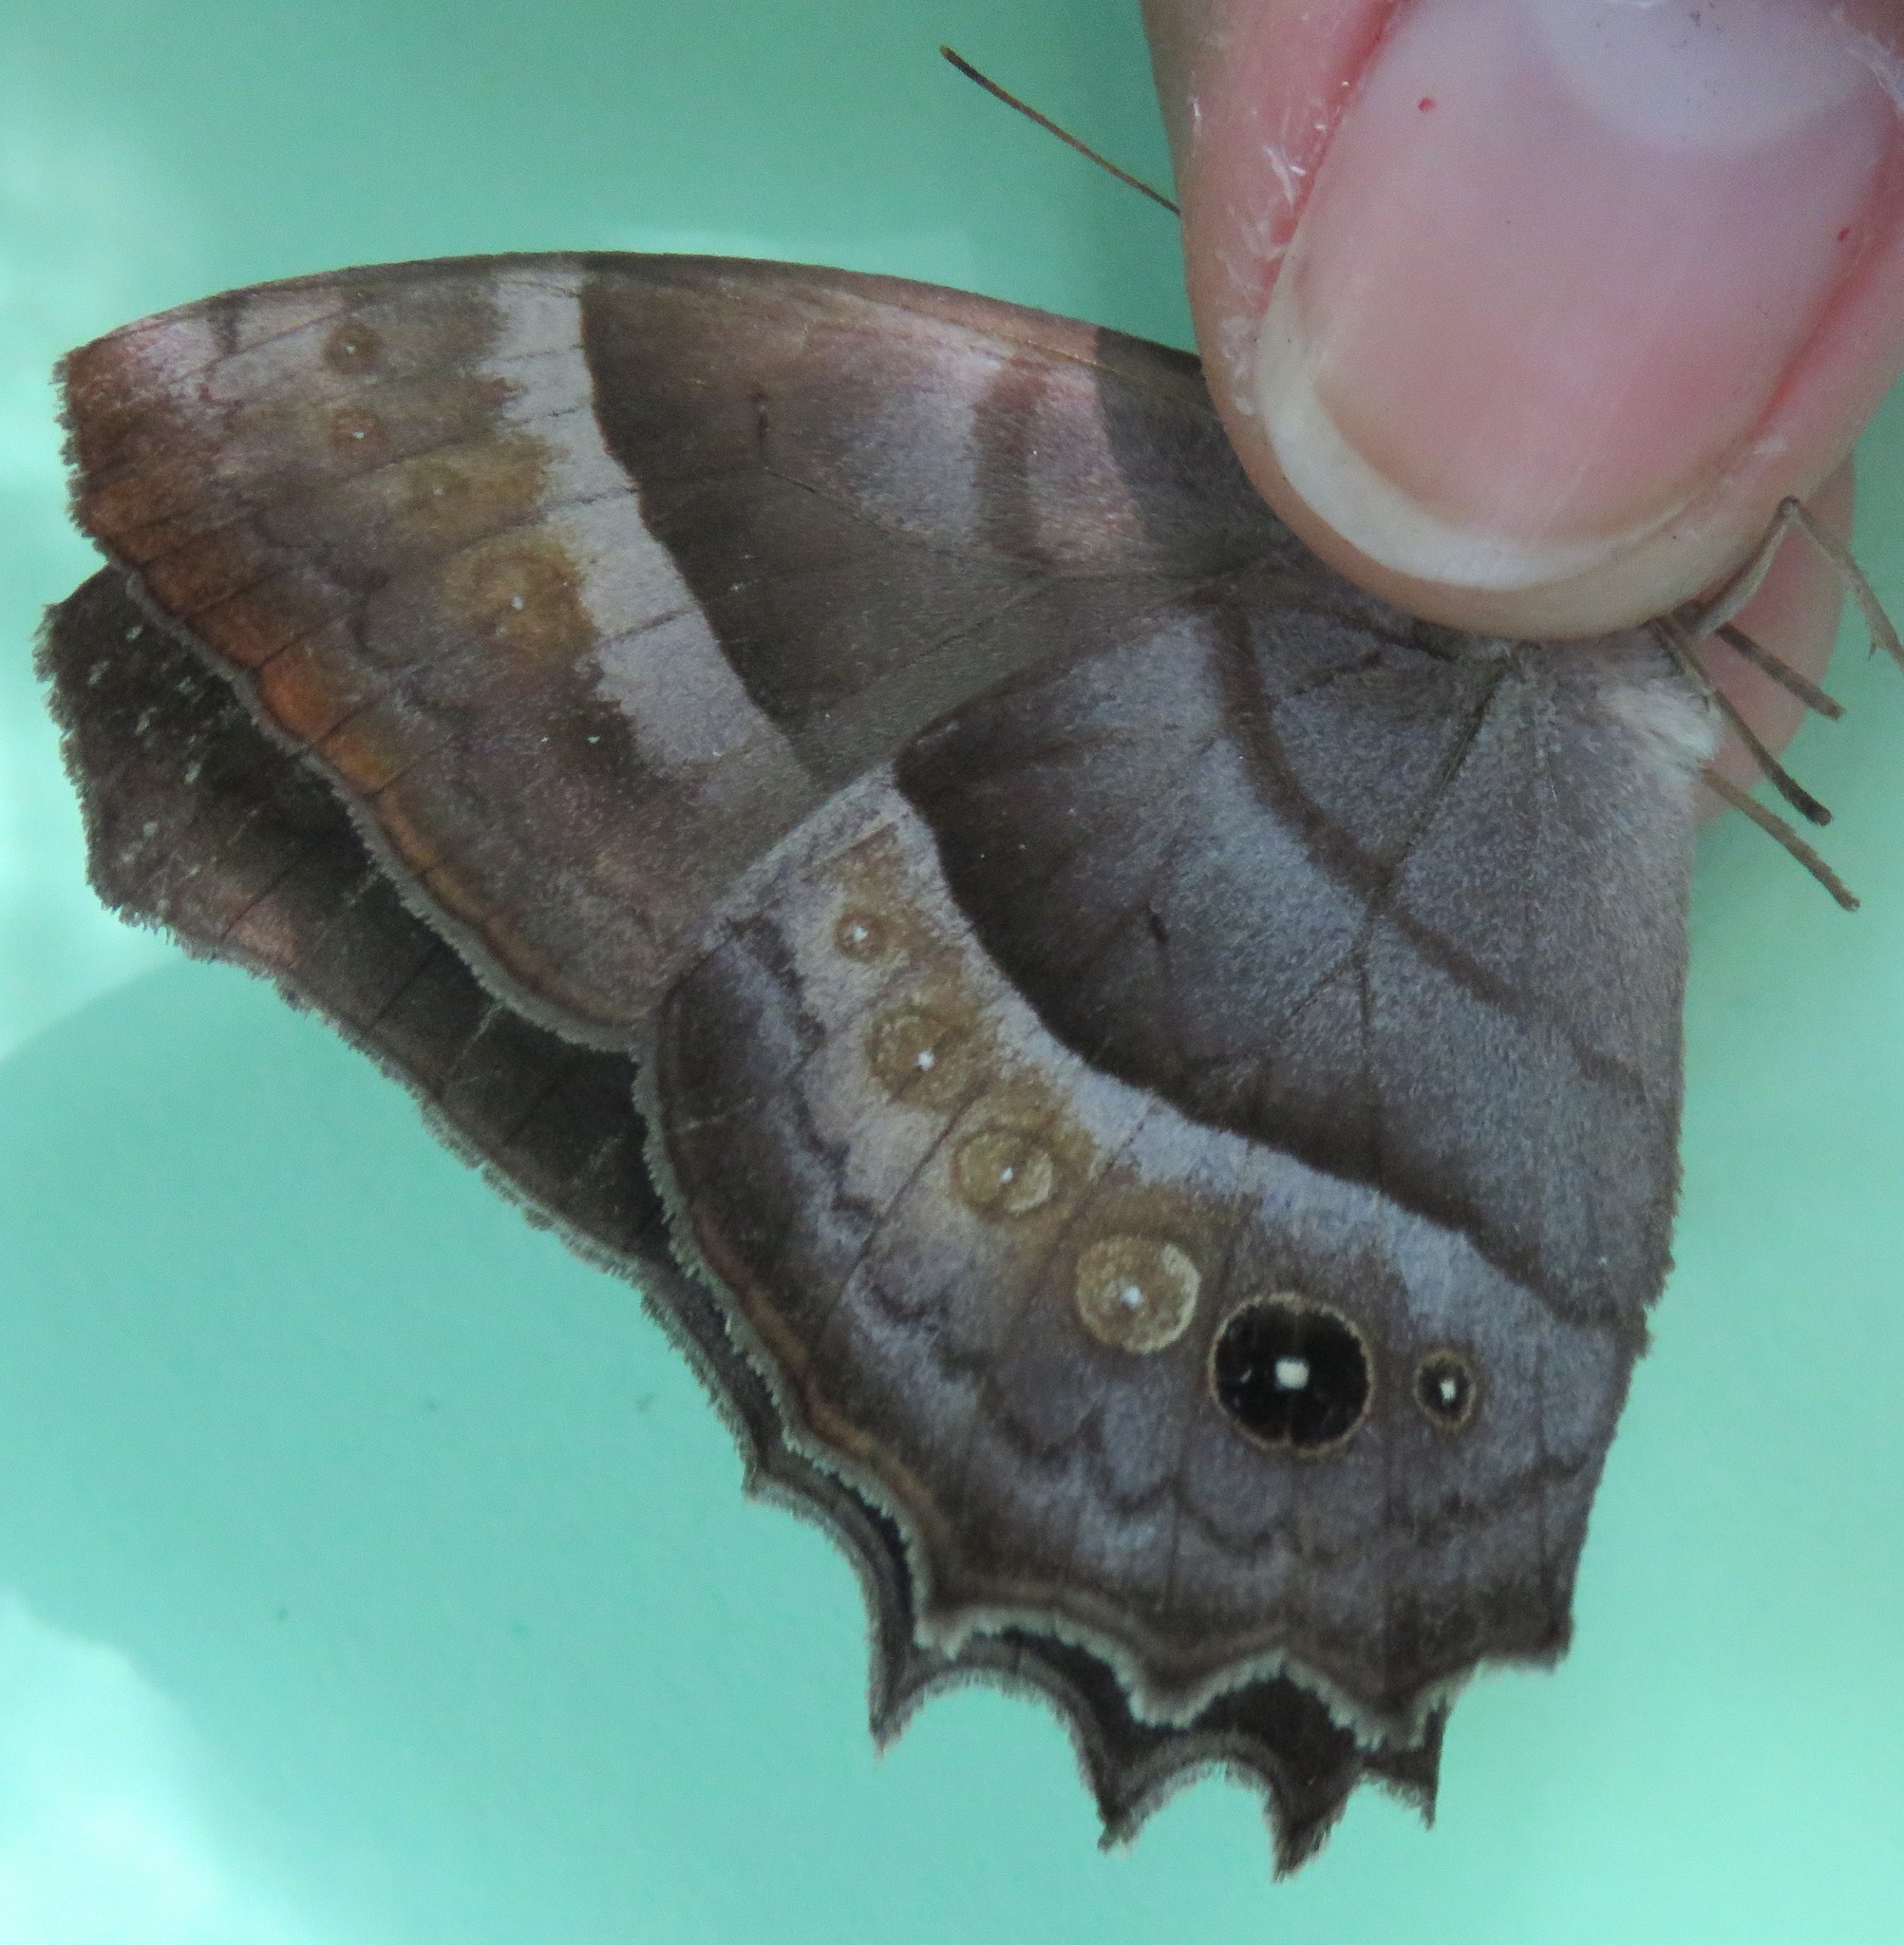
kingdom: Animalia
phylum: Arthropoda
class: Insecta
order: Lepidoptera
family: Nymphalidae
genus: Taygetis
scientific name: Taygetis inconspicua
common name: Inconspicuous satyr
